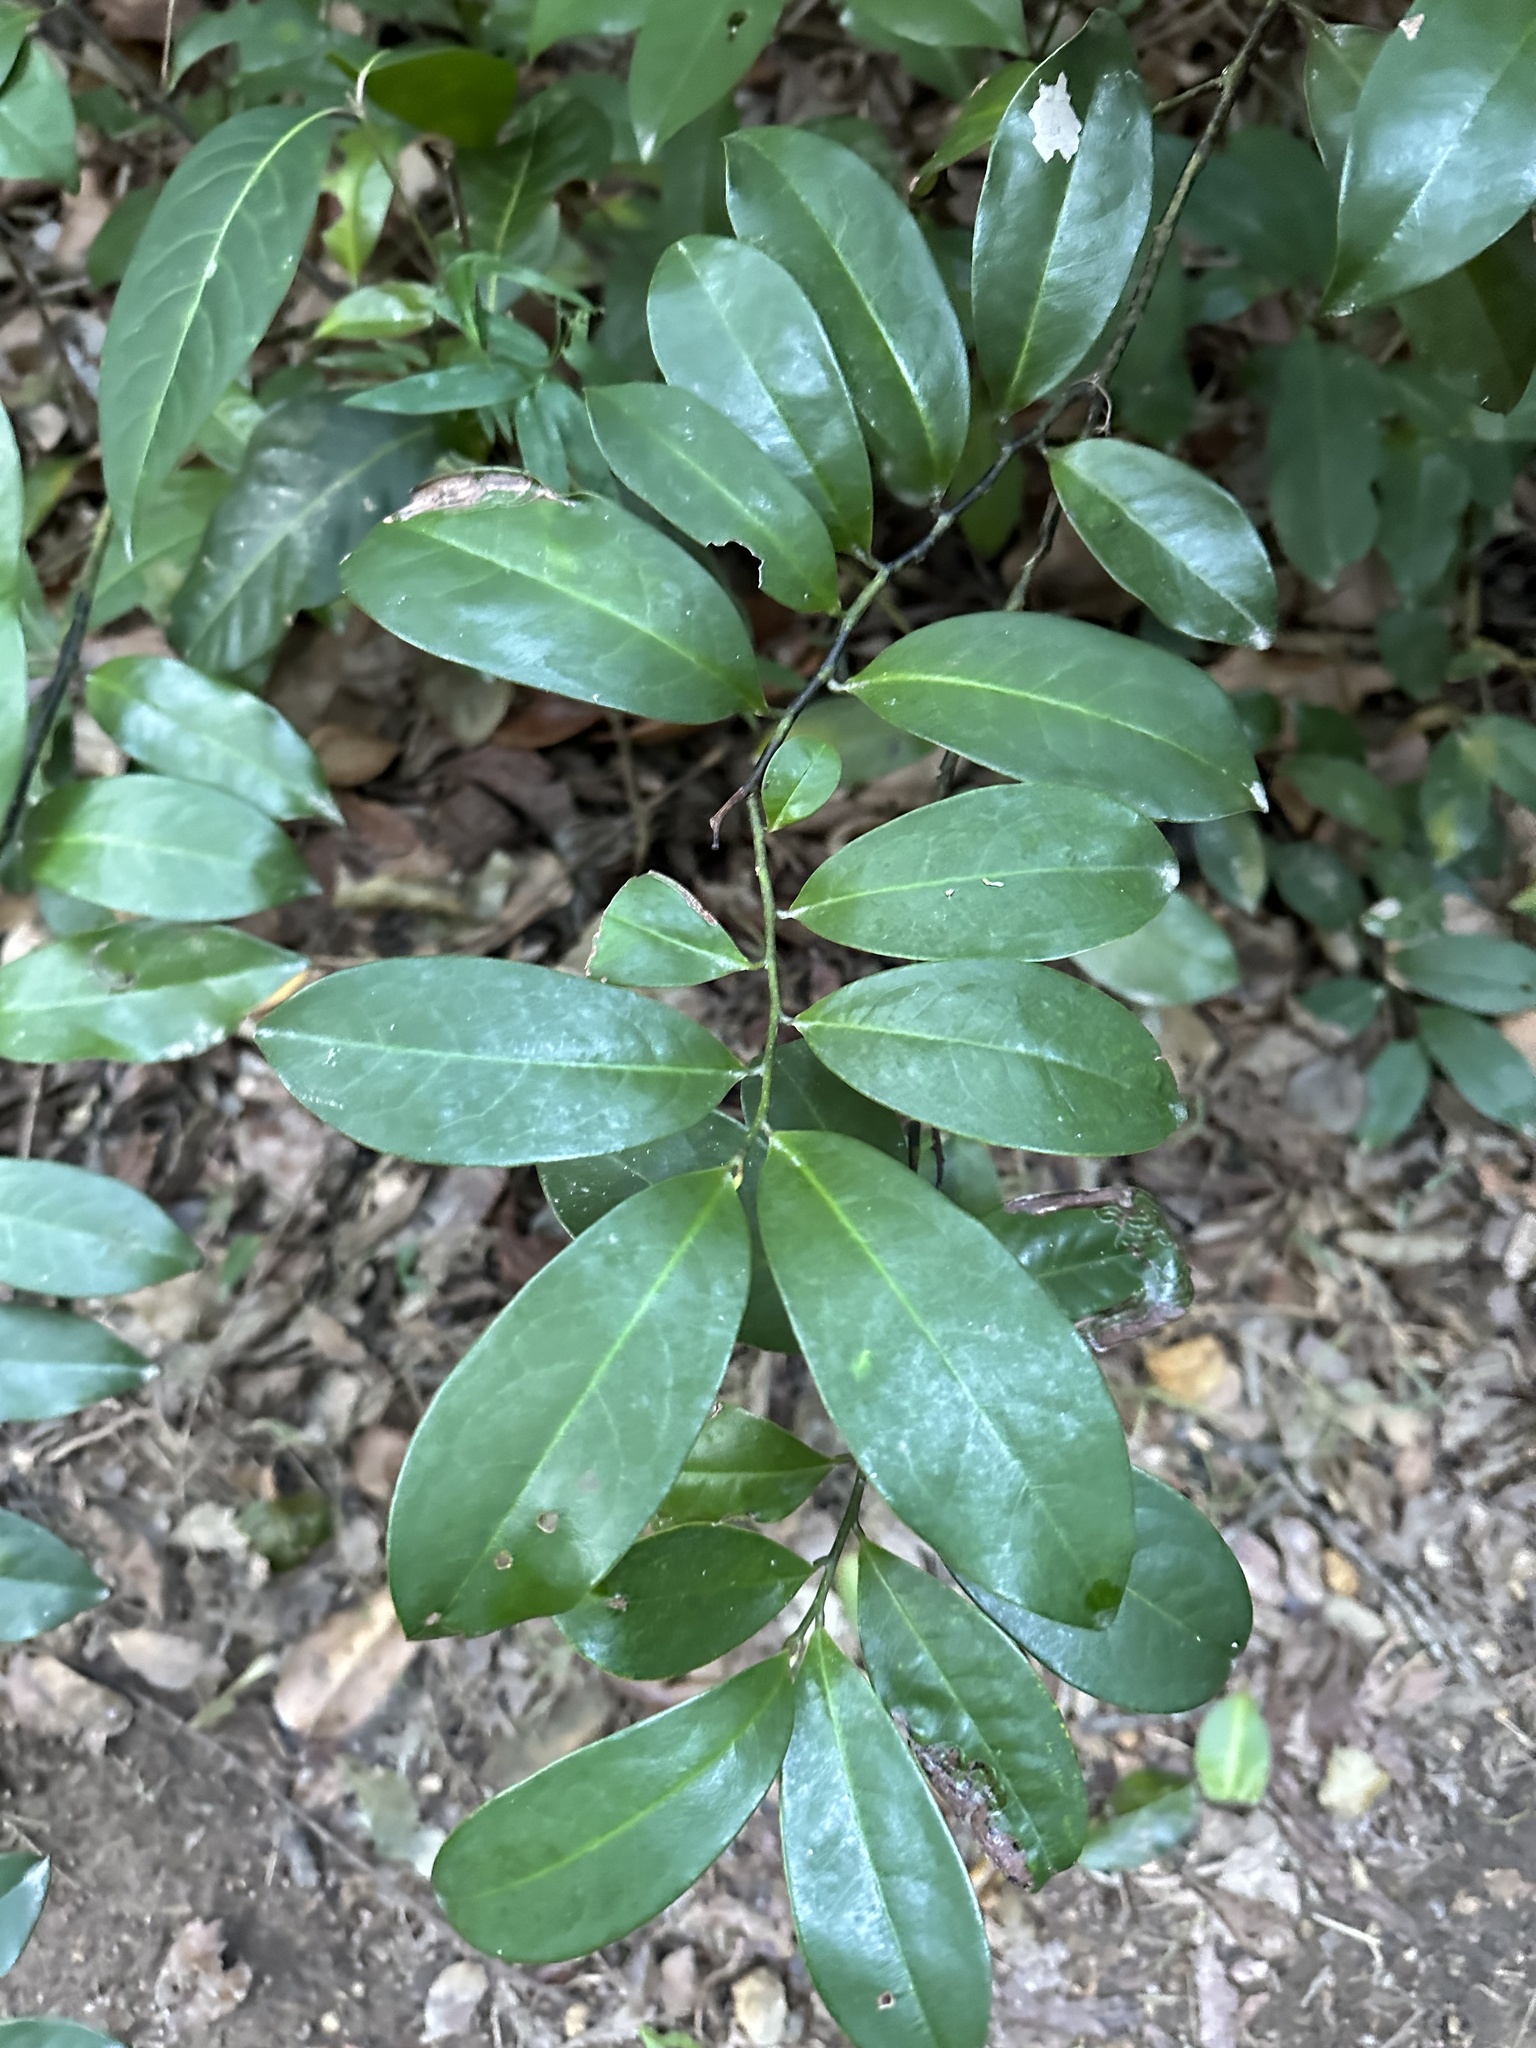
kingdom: Plantae
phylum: Tracheophyta
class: Magnoliopsida
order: Magnoliales
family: Eupomatiaceae
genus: Eupomatia
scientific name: Eupomatia laurina
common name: Bolwarra
